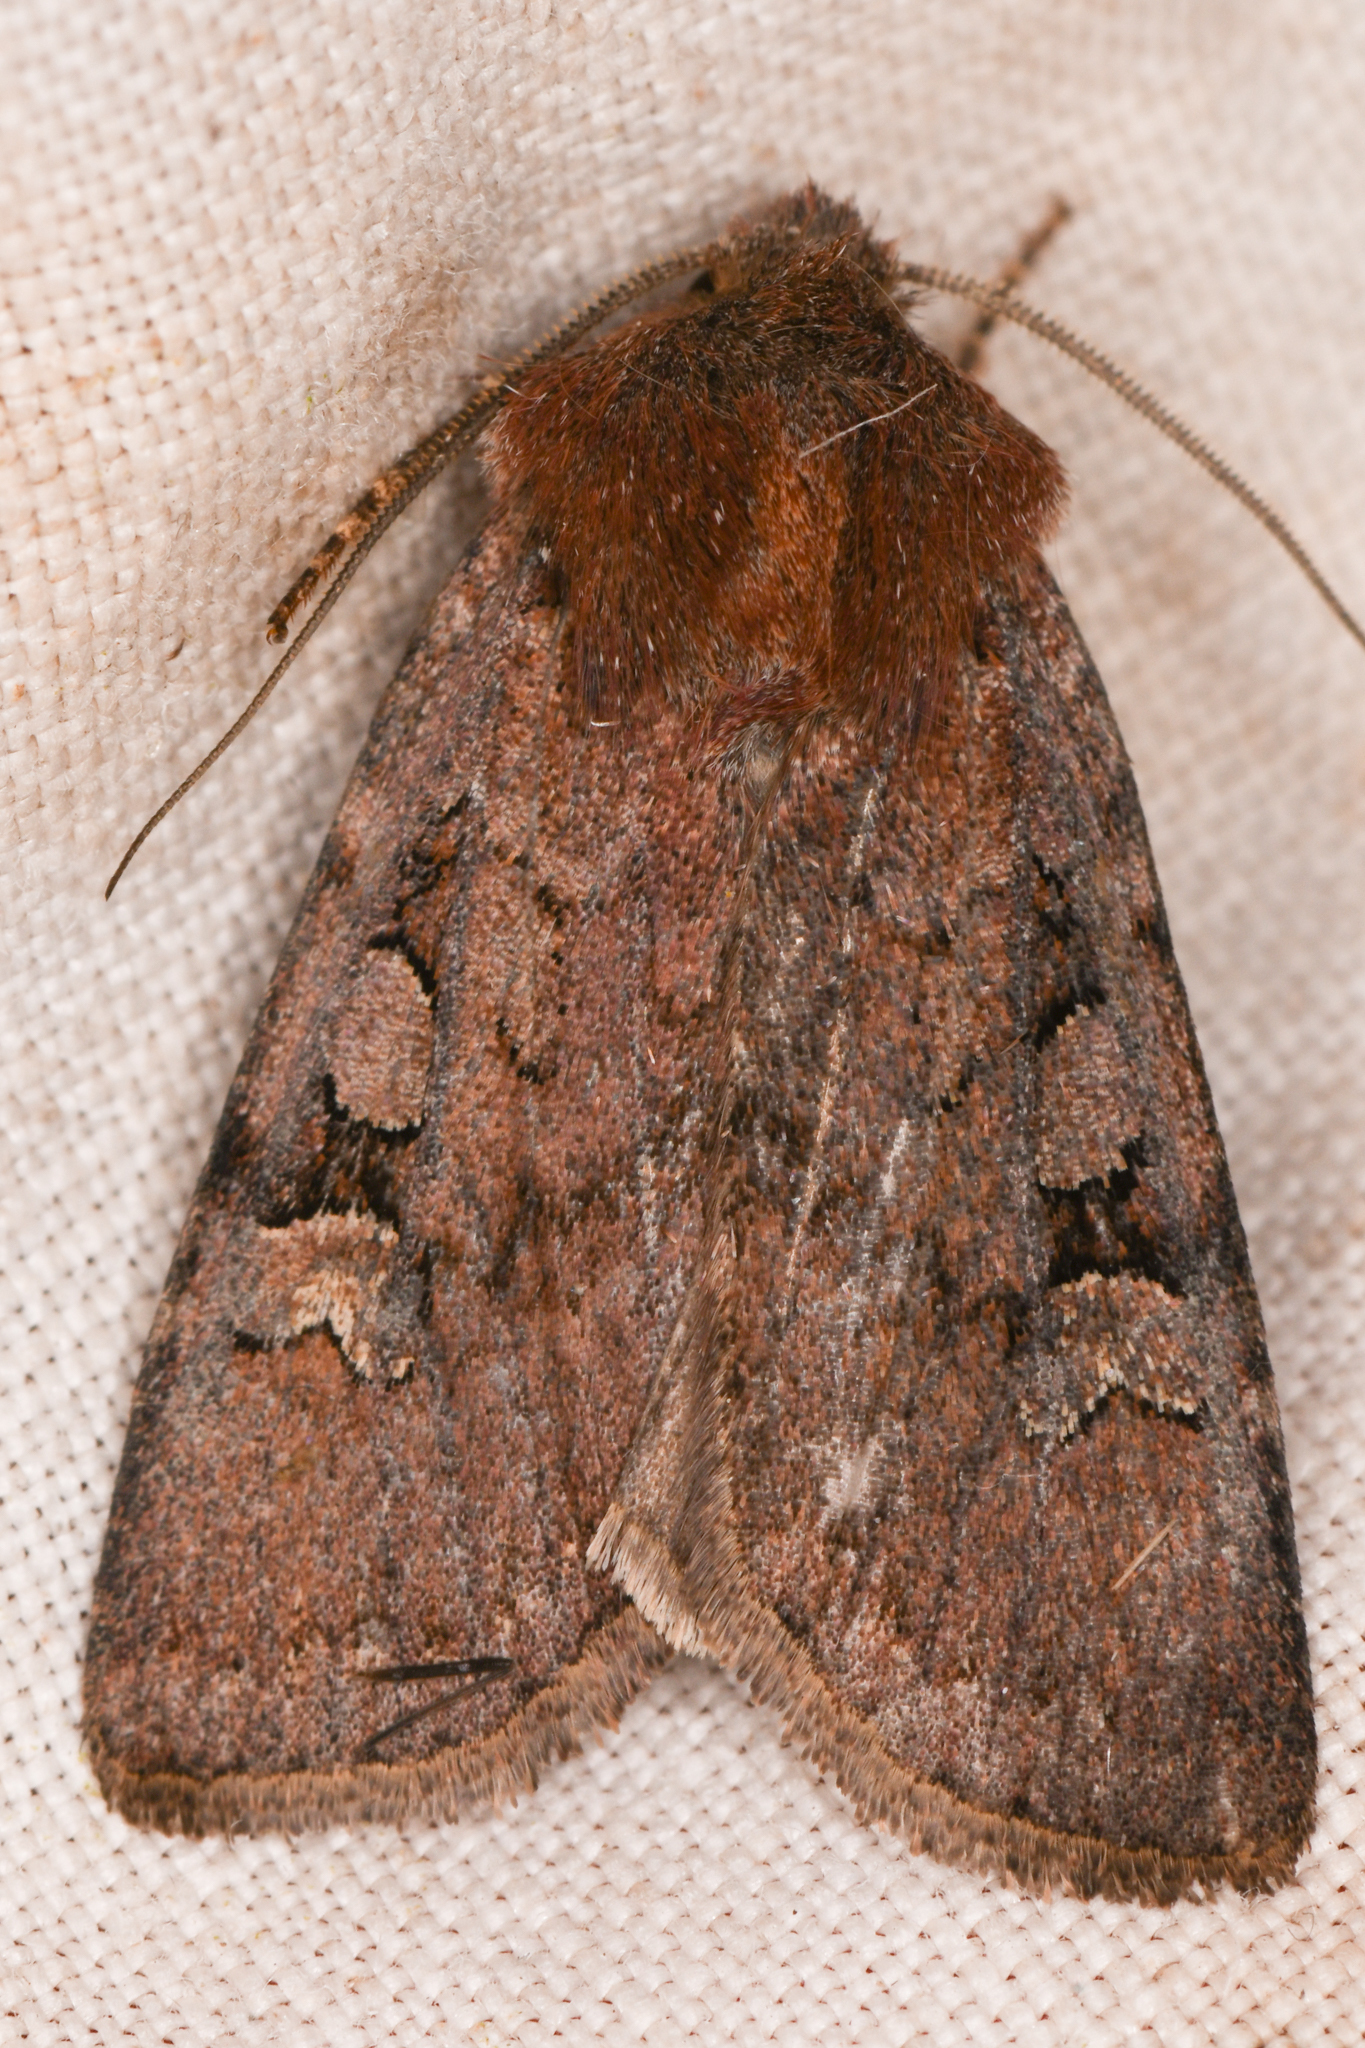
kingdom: Animalia
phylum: Arthropoda
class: Insecta
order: Lepidoptera
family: Noctuidae
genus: Euxoa
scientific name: Euxoa lewisi
